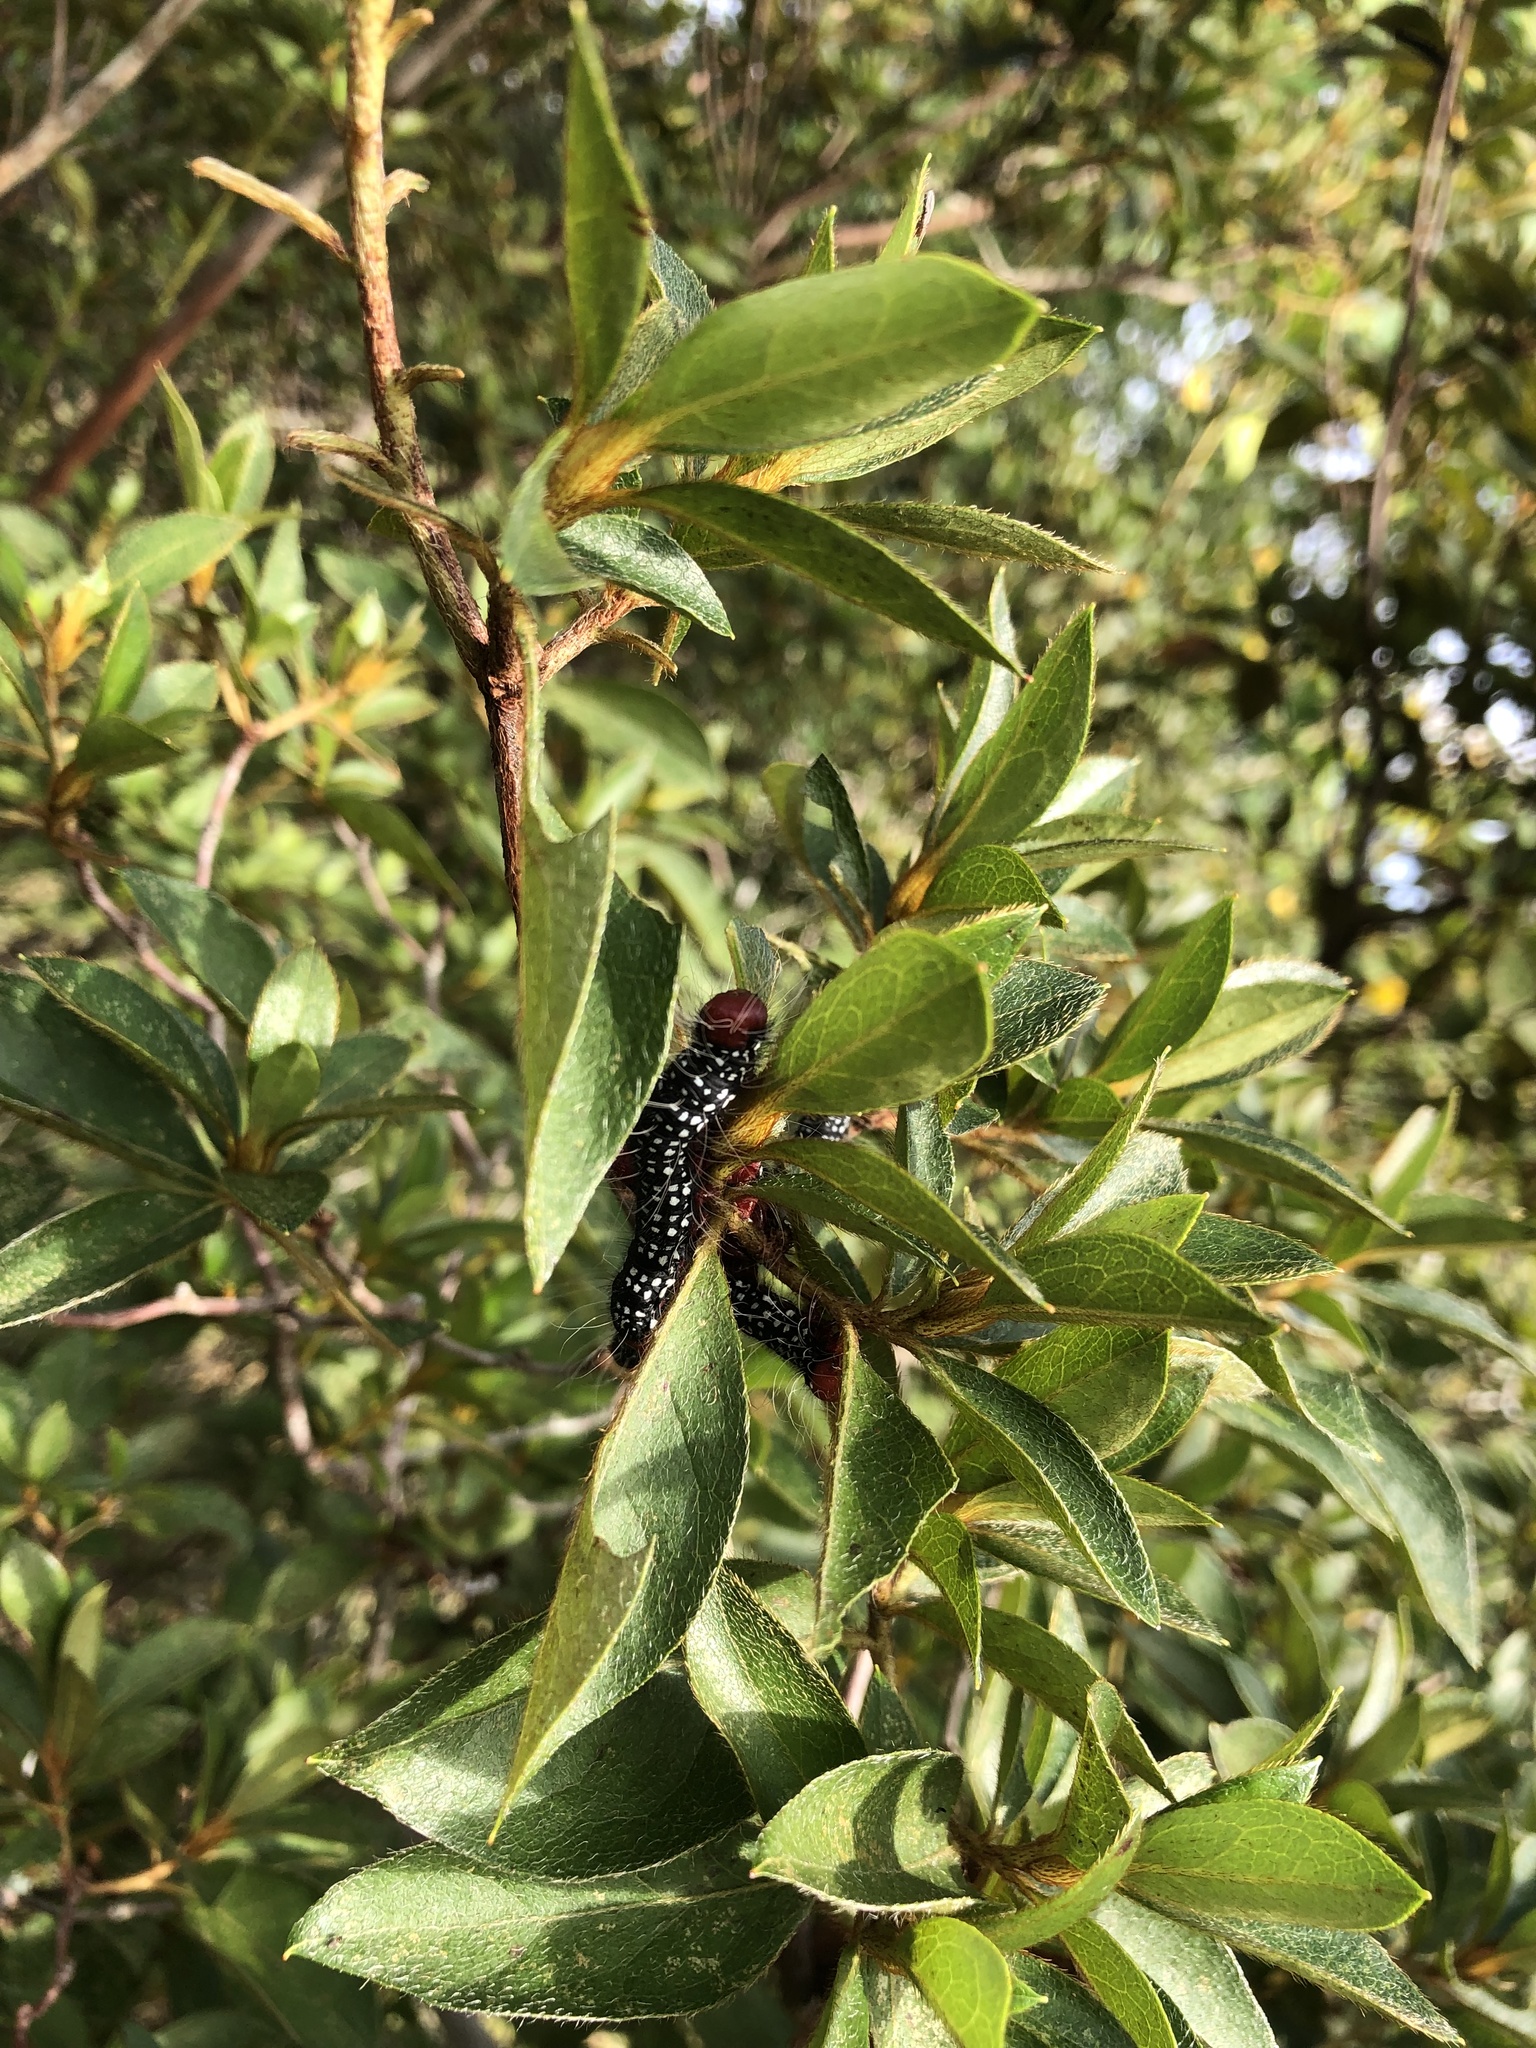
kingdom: Animalia
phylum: Arthropoda
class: Insecta
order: Lepidoptera
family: Notodontidae
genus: Datana
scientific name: Datana major
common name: Azalea caterpillar
